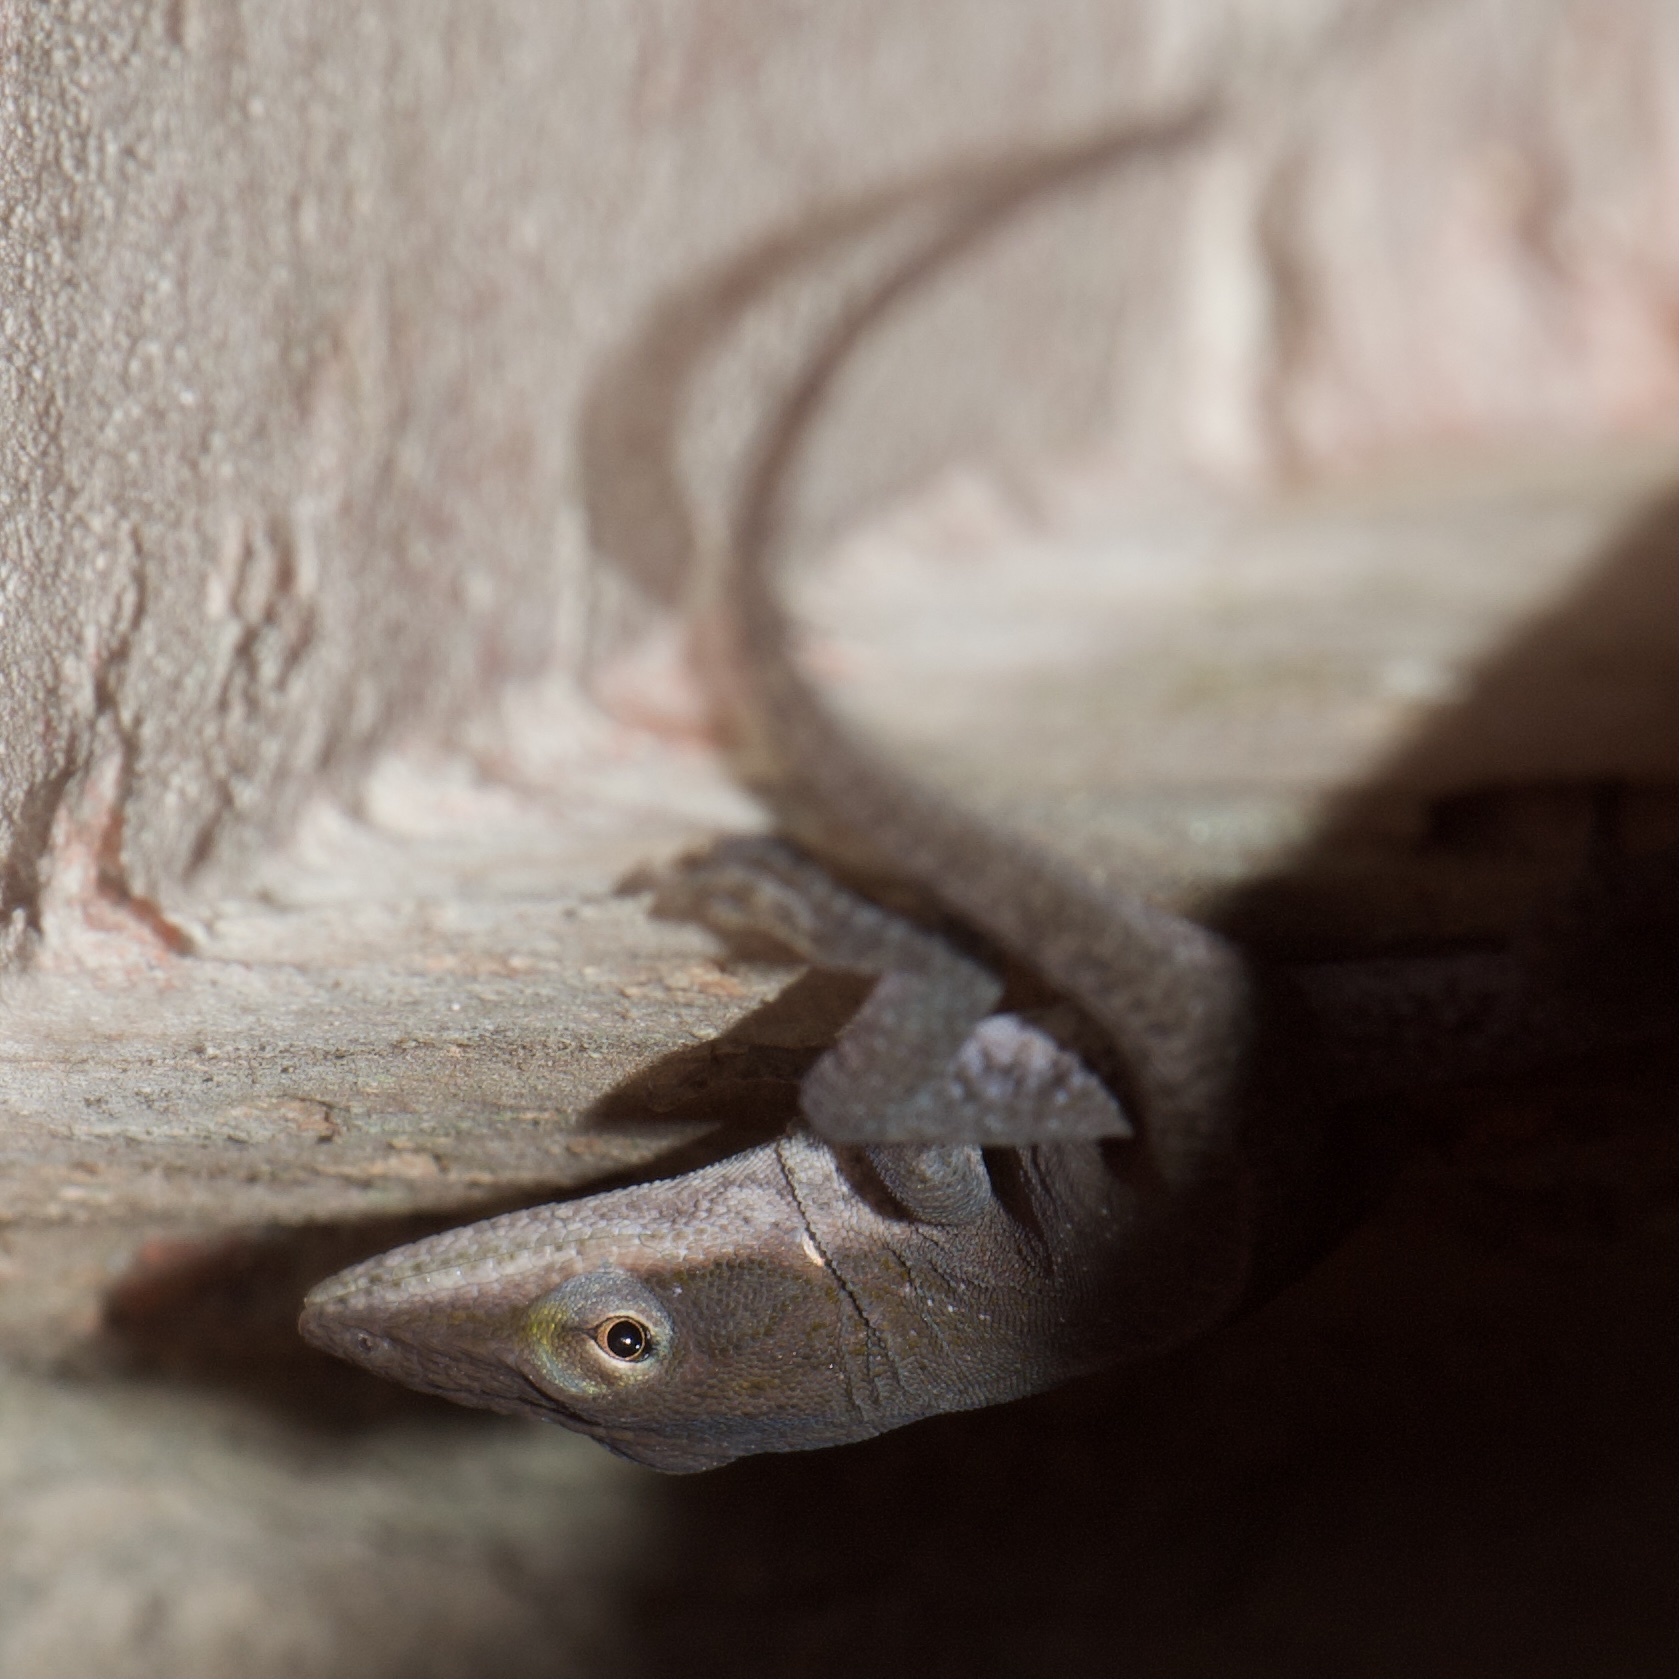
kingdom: Animalia
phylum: Chordata
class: Squamata
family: Dactyloidae
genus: Anolis
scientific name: Anolis carolinensis
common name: Green anole
